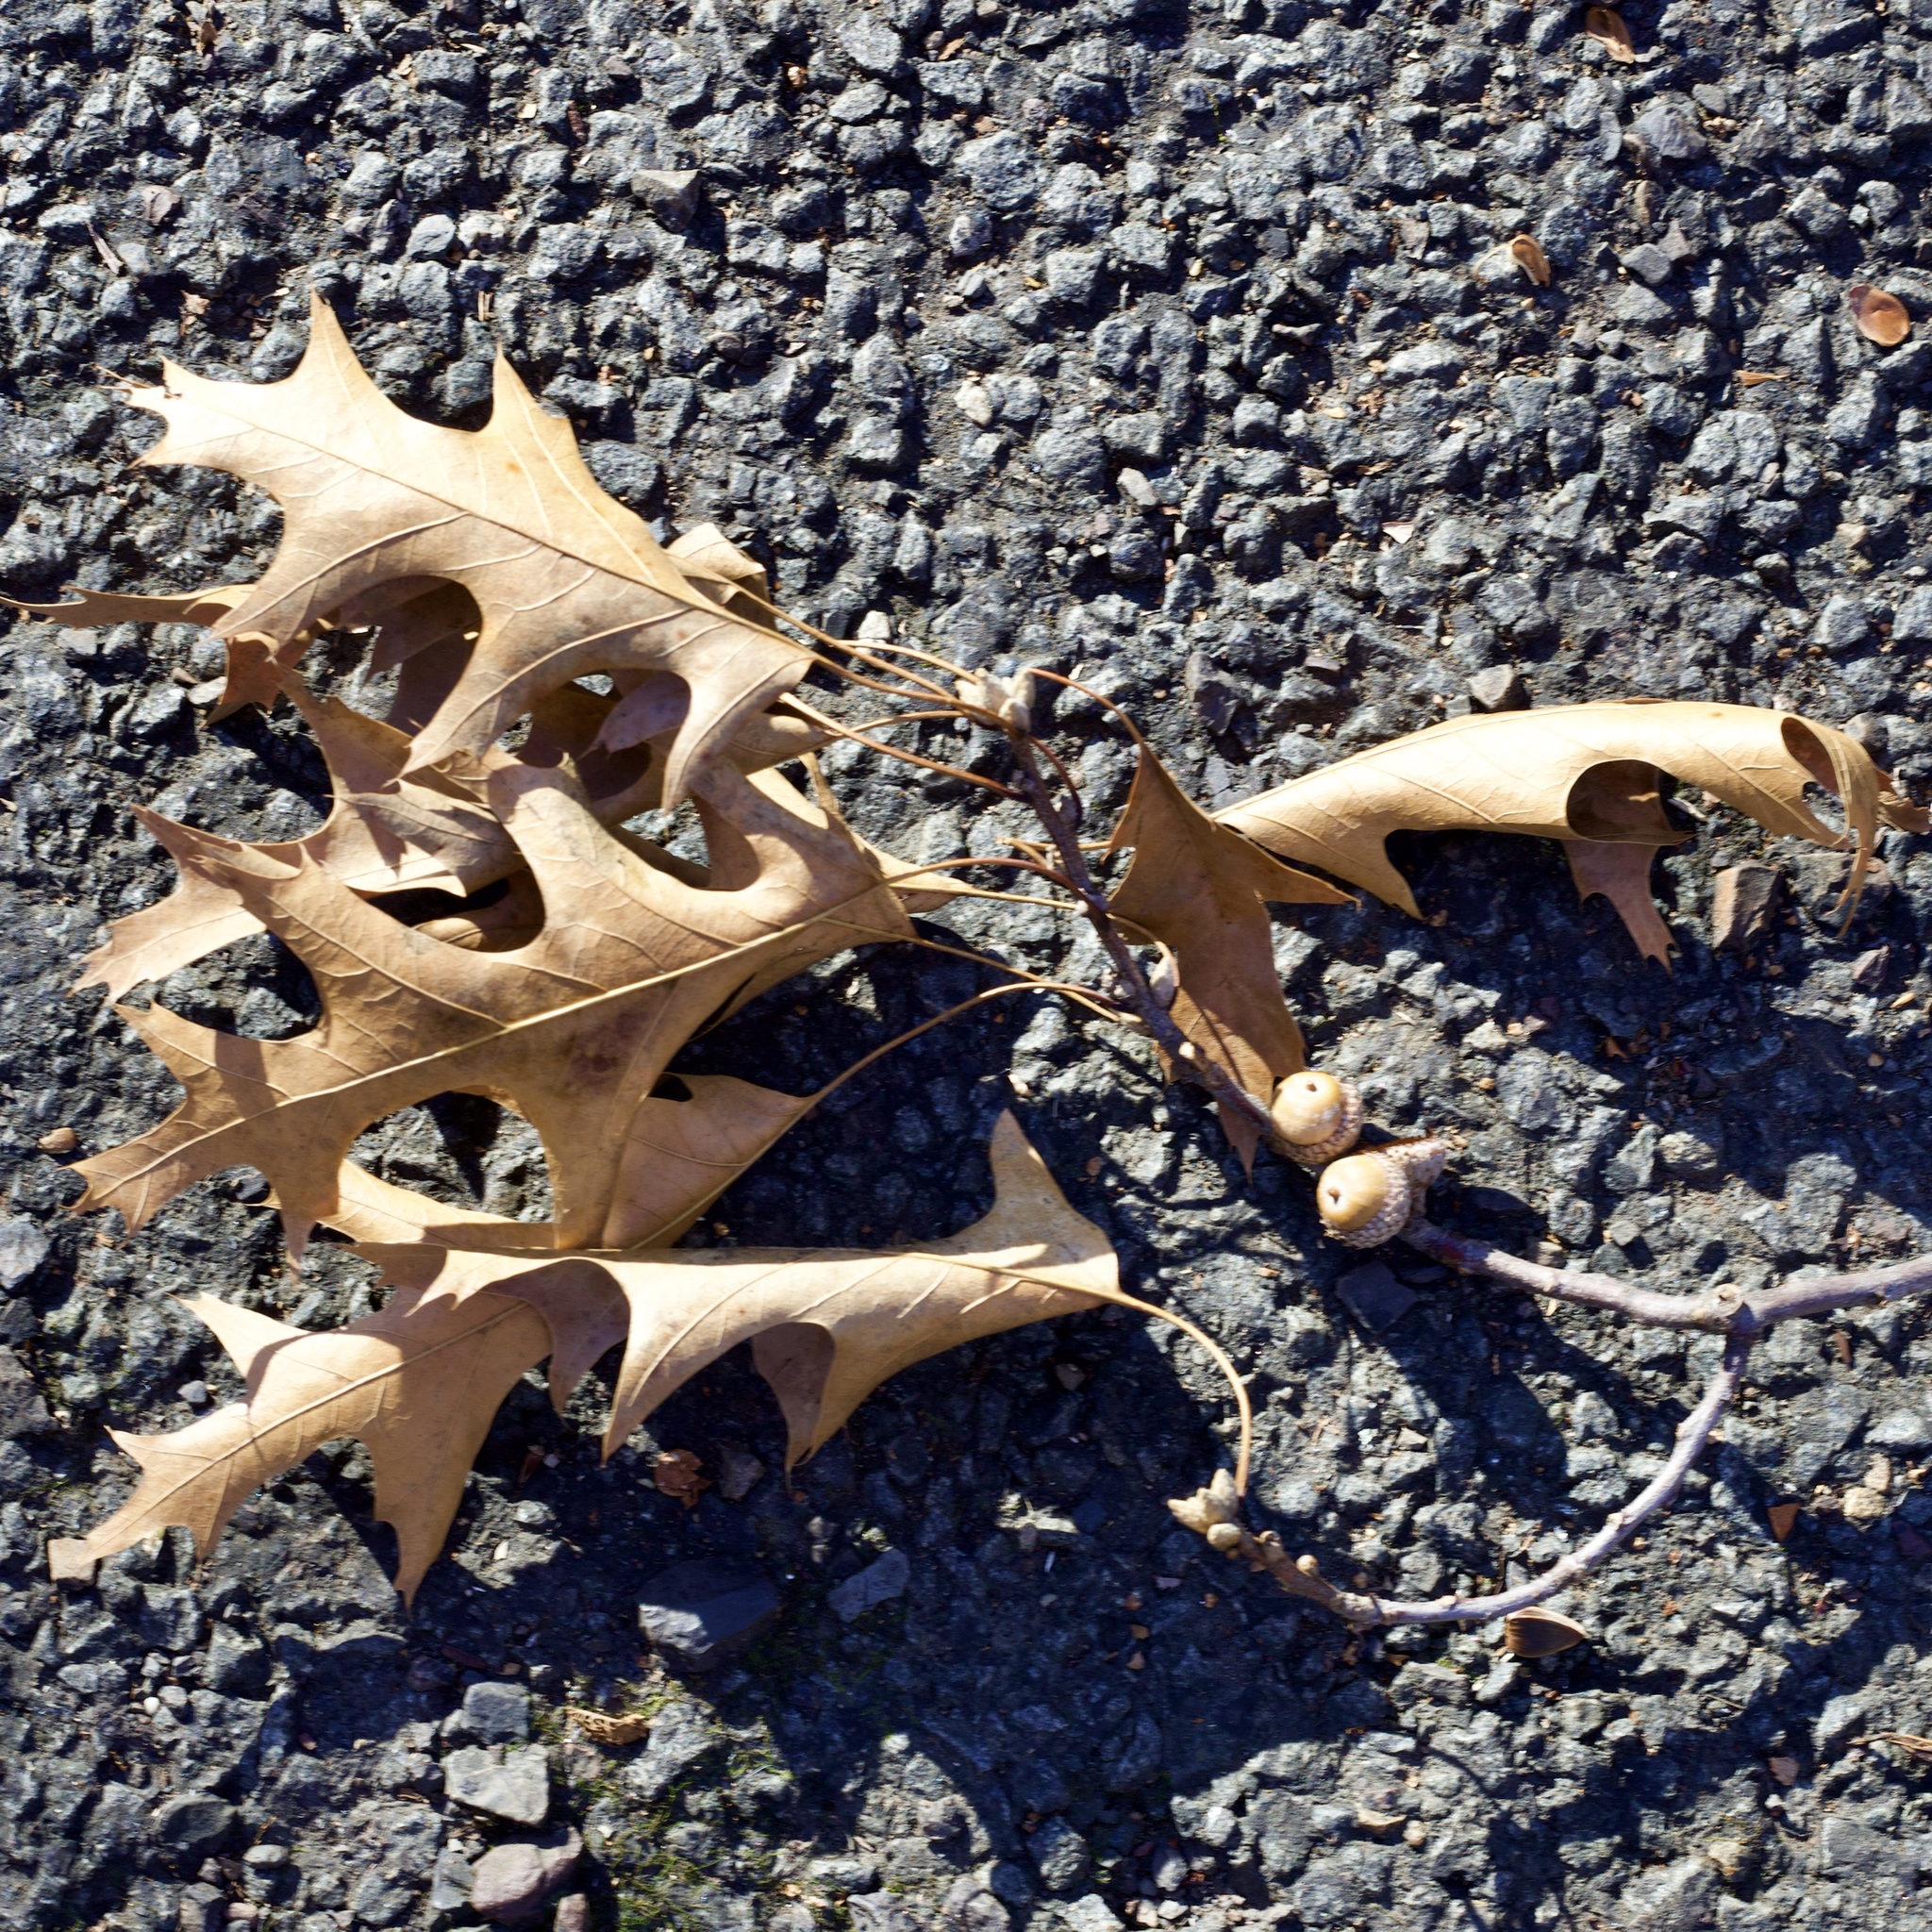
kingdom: Plantae
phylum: Tracheophyta
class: Magnoliopsida
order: Fagales
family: Fagaceae
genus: Quercus
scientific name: Quercus velutina
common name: Black oak
